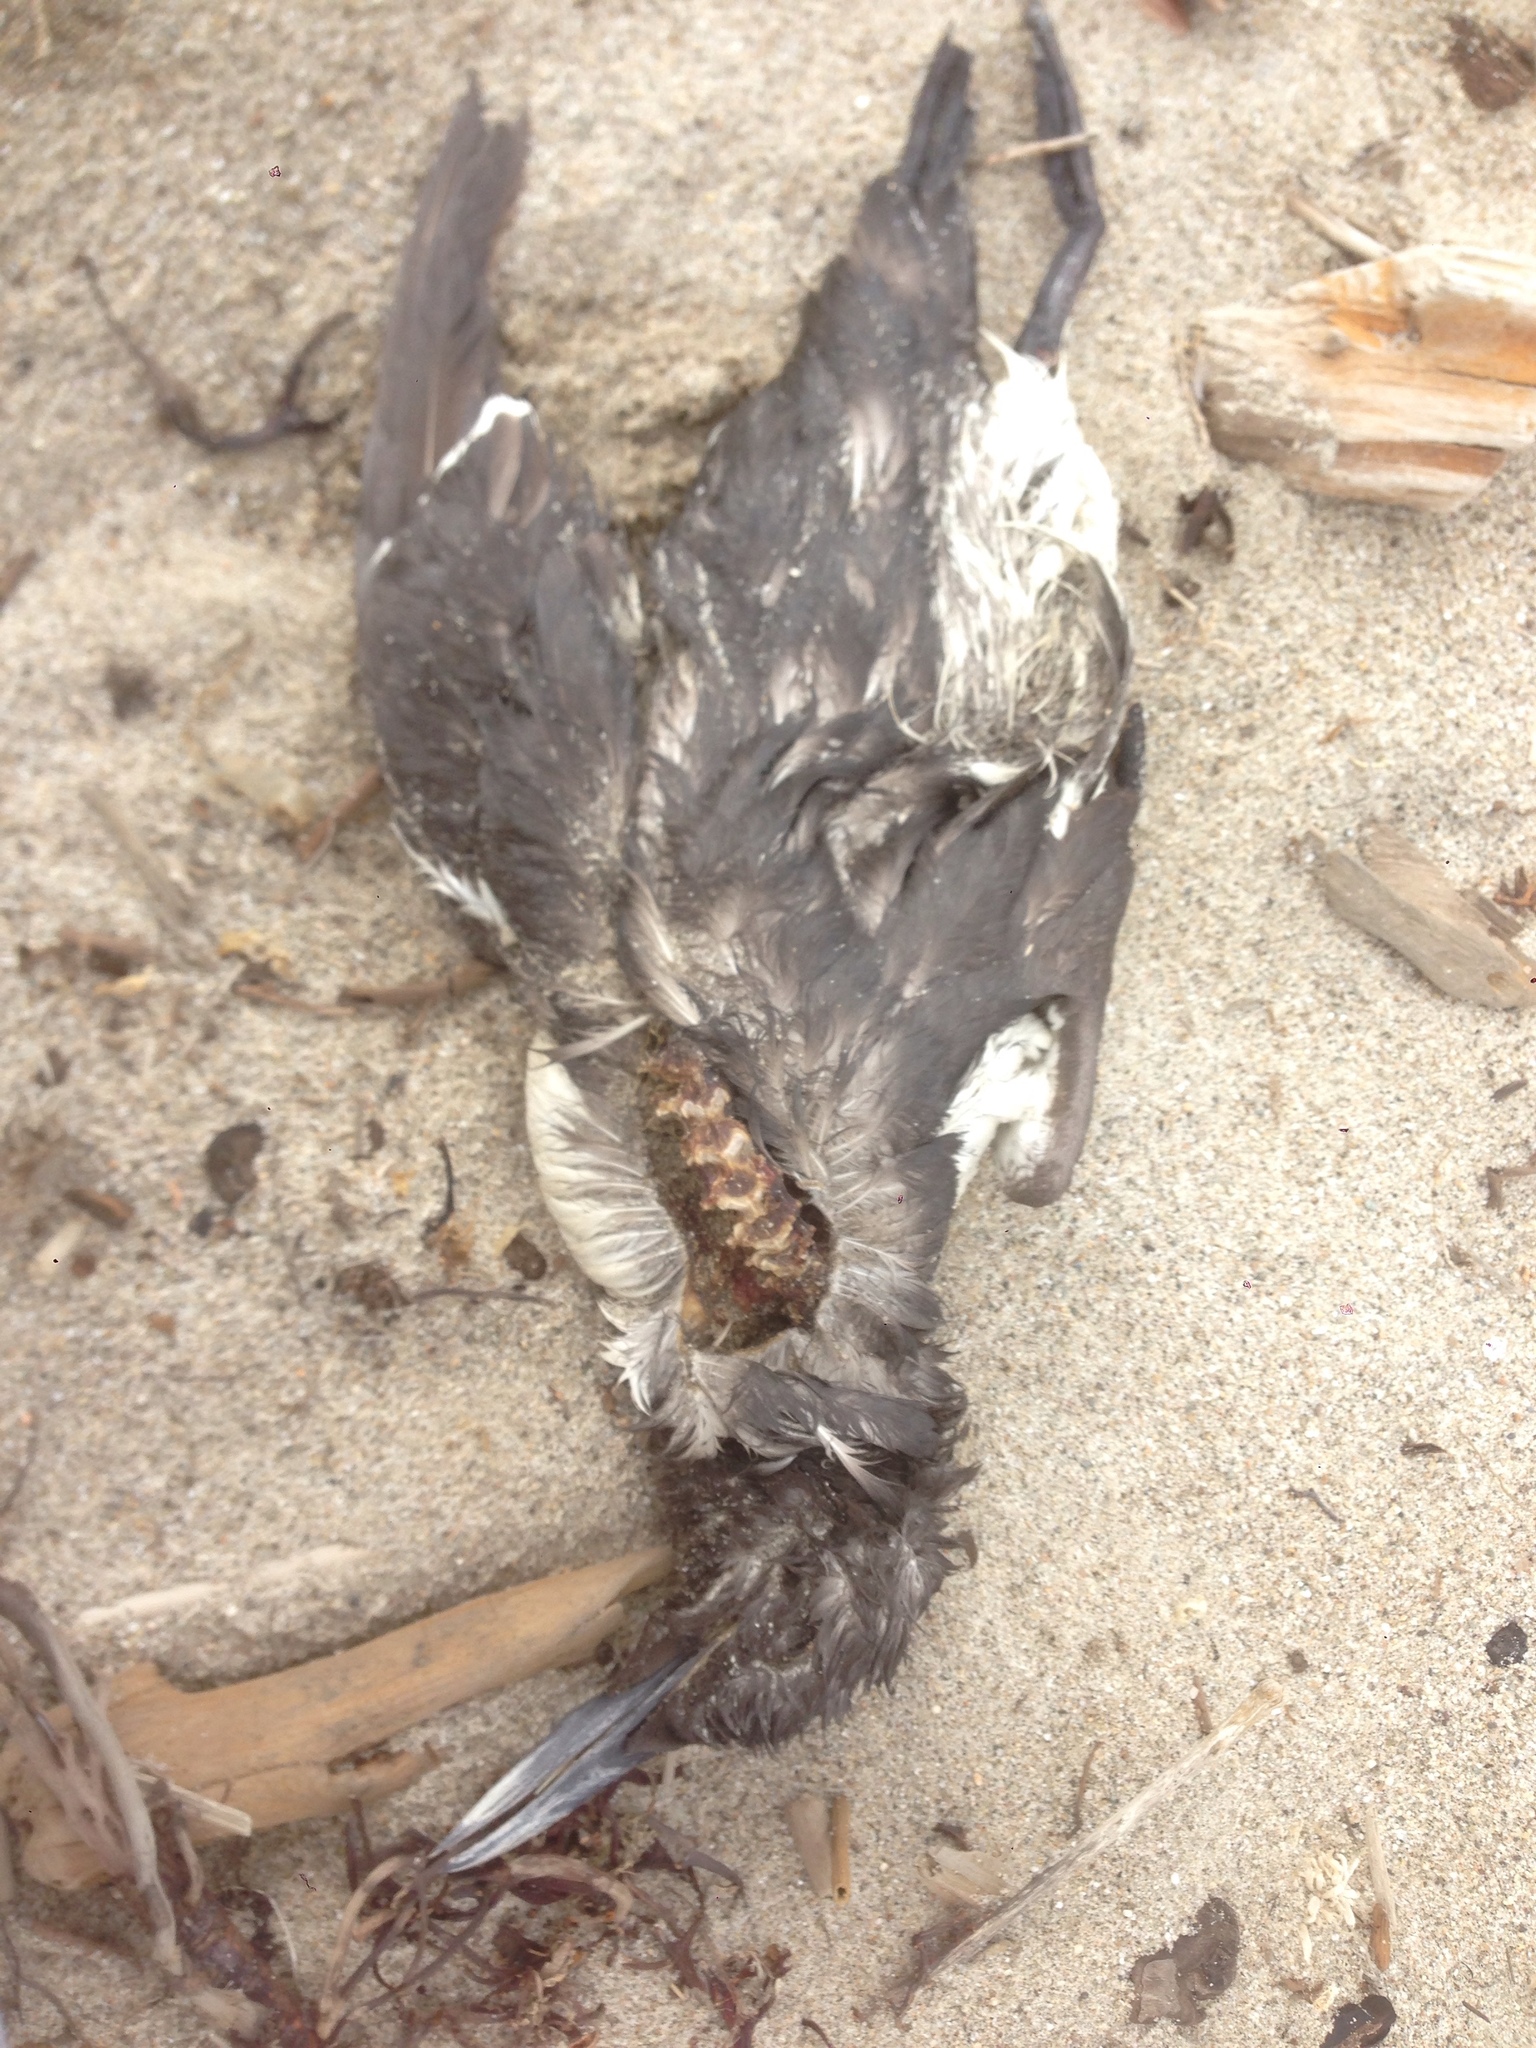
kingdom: Animalia
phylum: Chordata
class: Aves
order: Charadriiformes
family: Alcidae
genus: Uria
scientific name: Uria aalge
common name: Common murre
